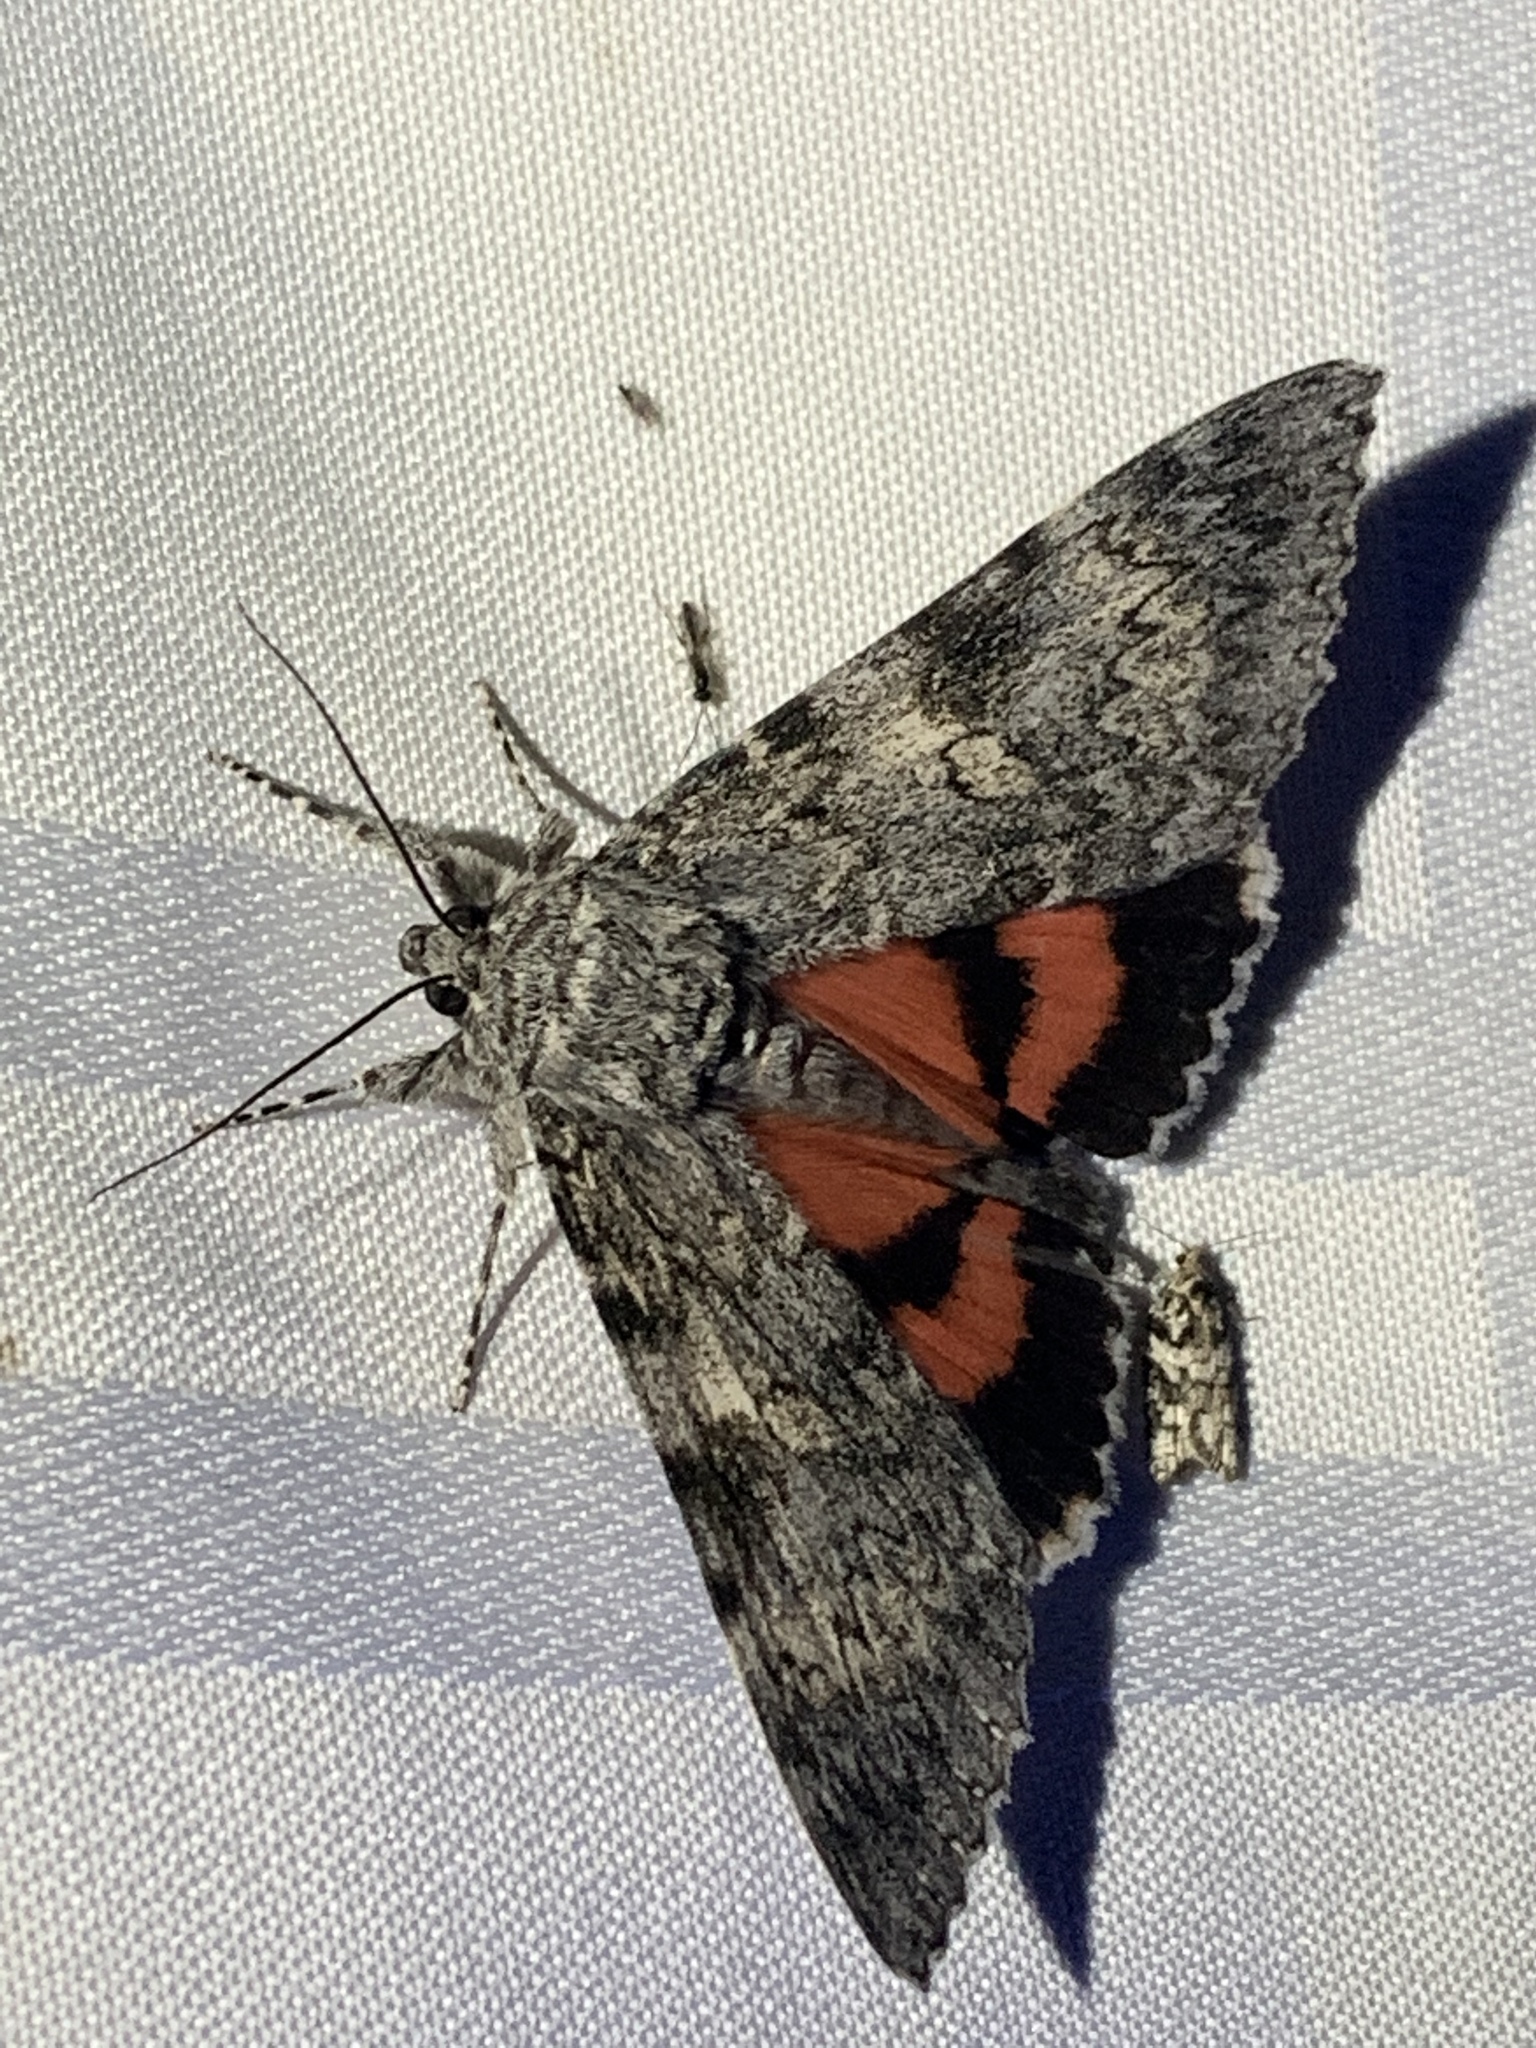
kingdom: Animalia
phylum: Arthropoda
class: Insecta
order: Lepidoptera
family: Erebidae
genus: Catocala
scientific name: Catocala unijuga
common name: Once-married underwing
